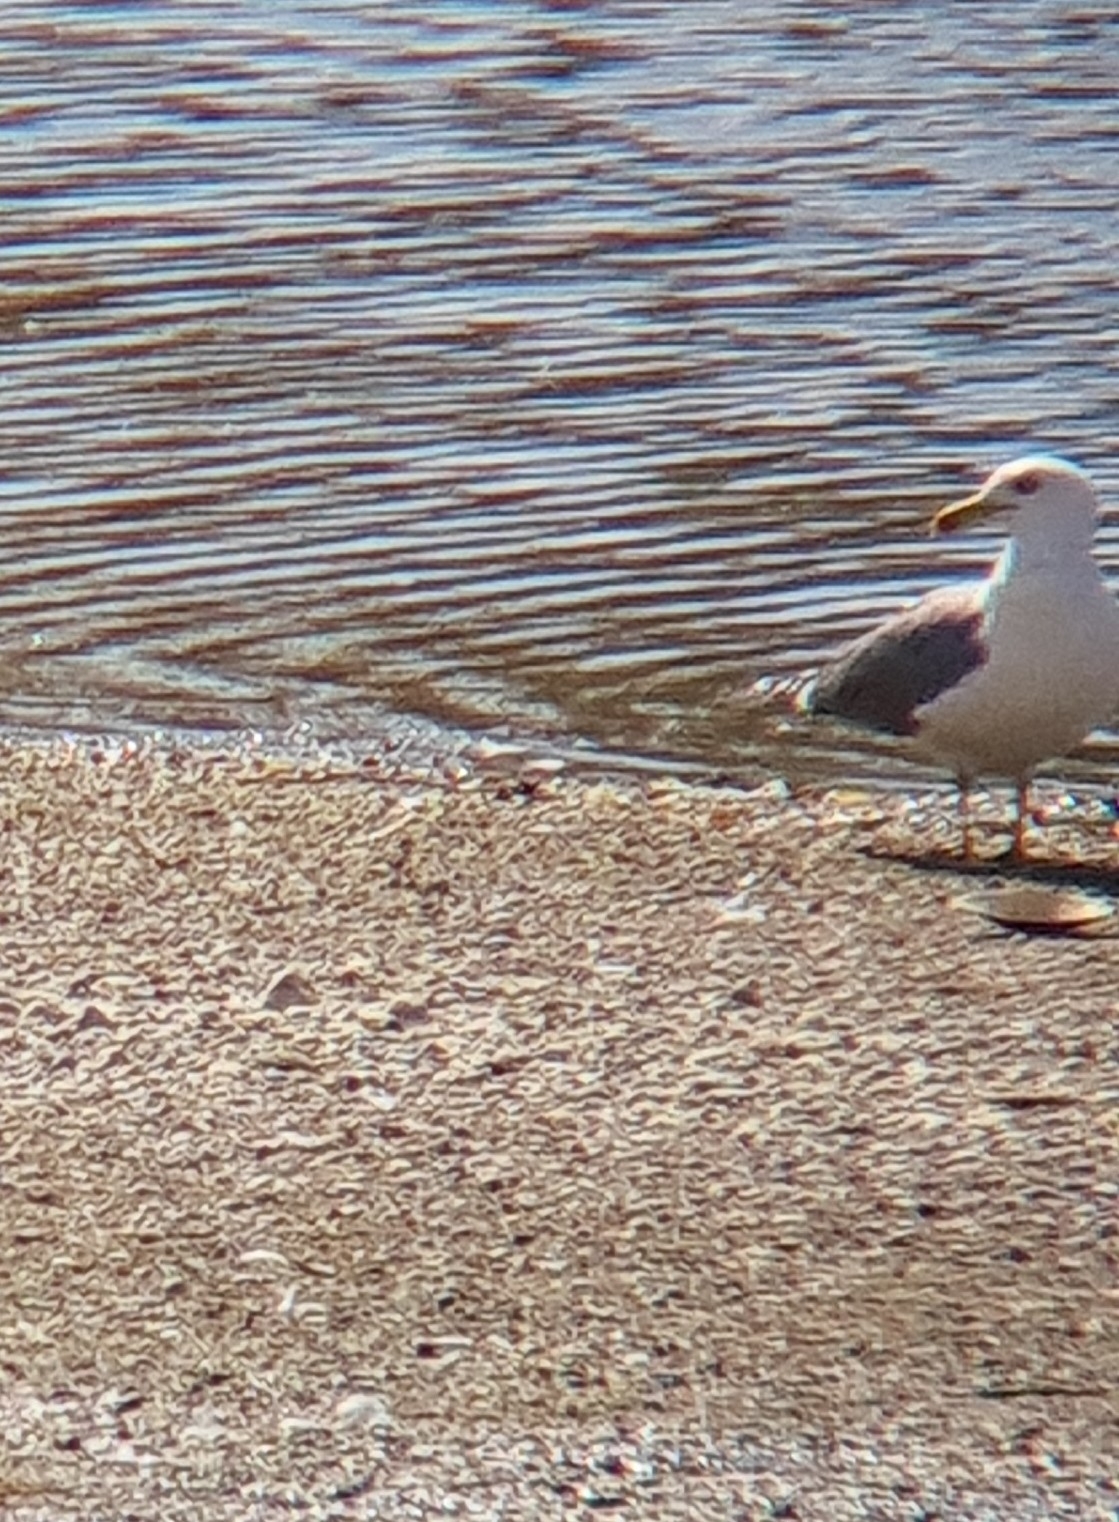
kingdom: Animalia
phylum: Chordata
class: Aves
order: Charadriiformes
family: Laridae
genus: Larus
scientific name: Larus michahellis
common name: Yellow-legged gull
